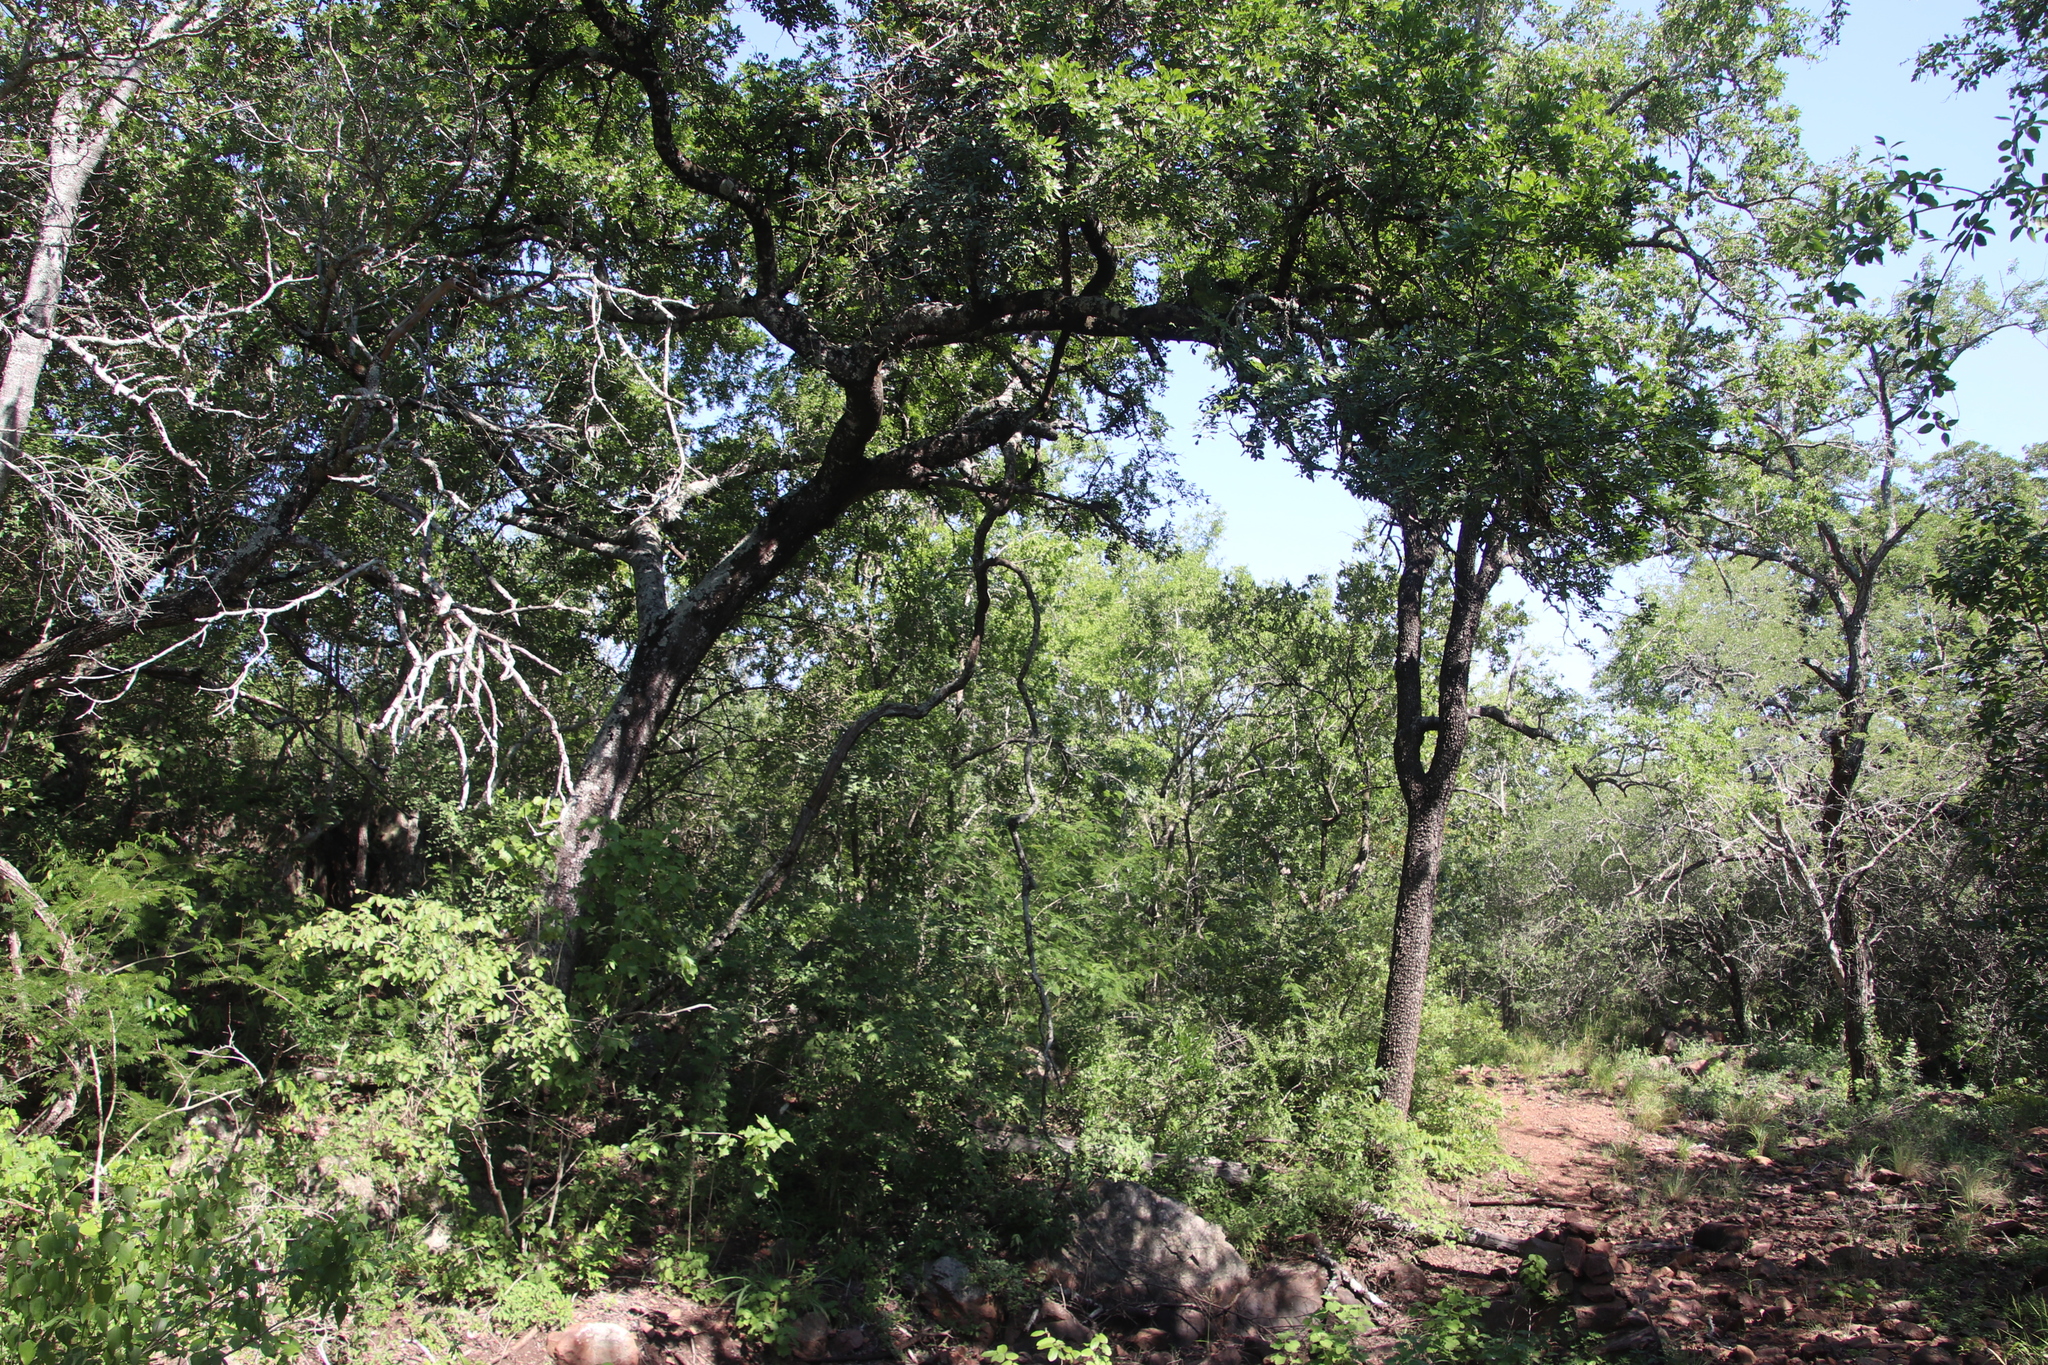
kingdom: Plantae
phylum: Tracheophyta
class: Magnoliopsida
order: Fabales
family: Fabaceae
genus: Schotia
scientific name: Schotia brachypetala
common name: Weeping boer-bean
